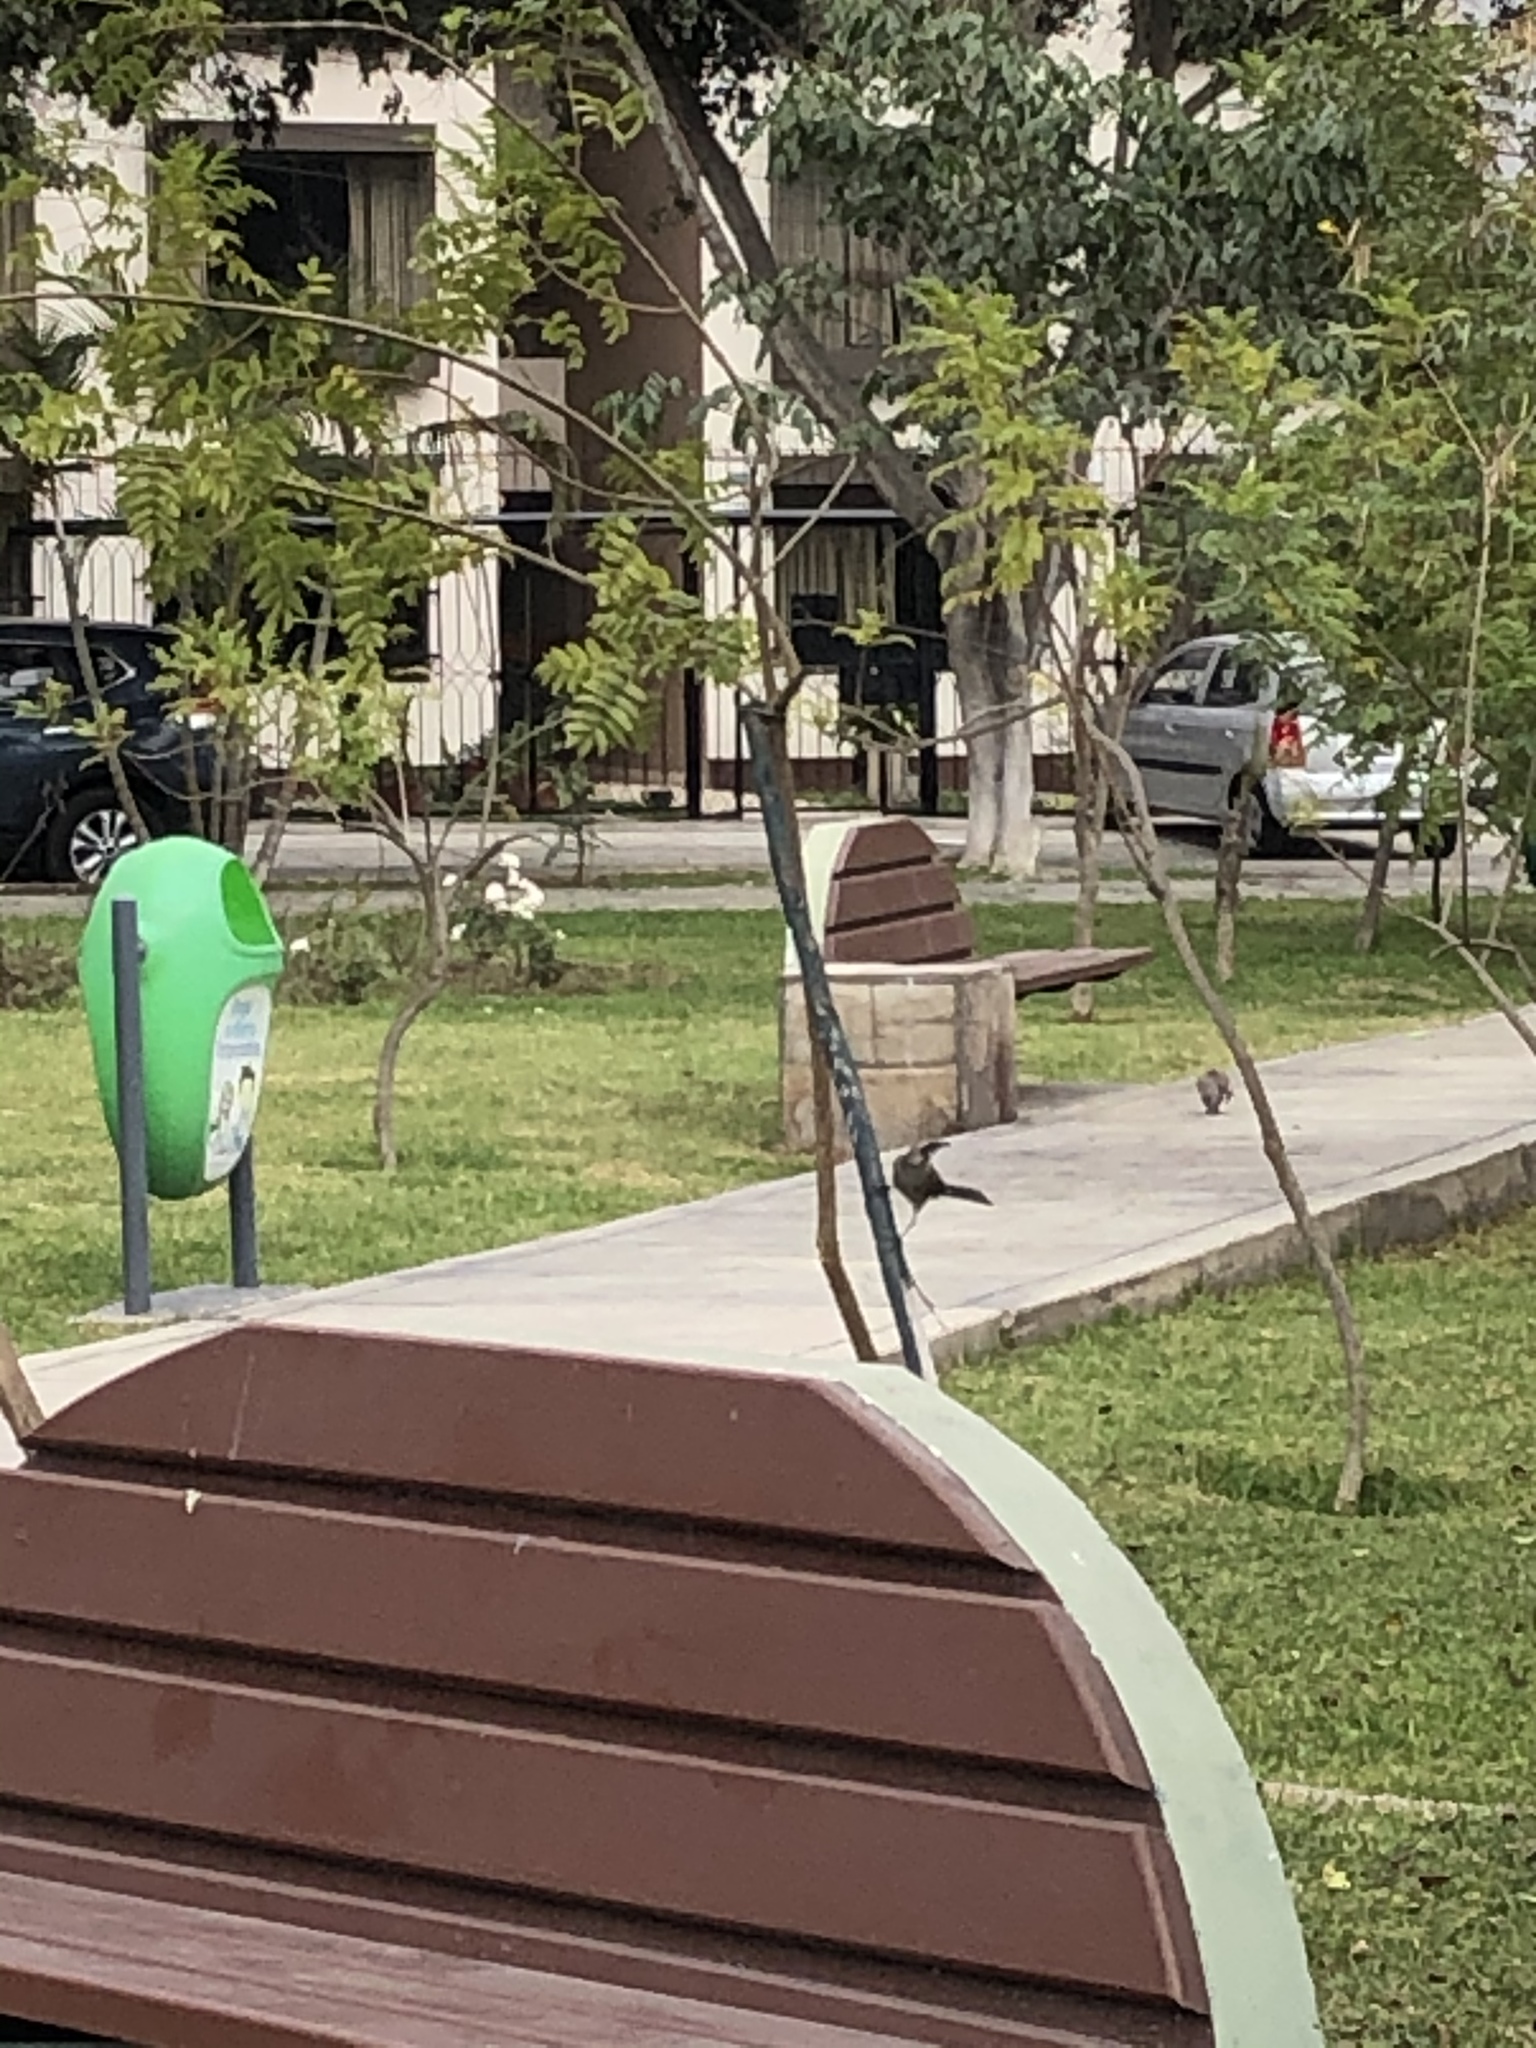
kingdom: Animalia
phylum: Chordata
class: Aves
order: Passeriformes
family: Mimidae
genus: Mimus
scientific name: Mimus longicaudatus
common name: Long-tailed mockingbird
